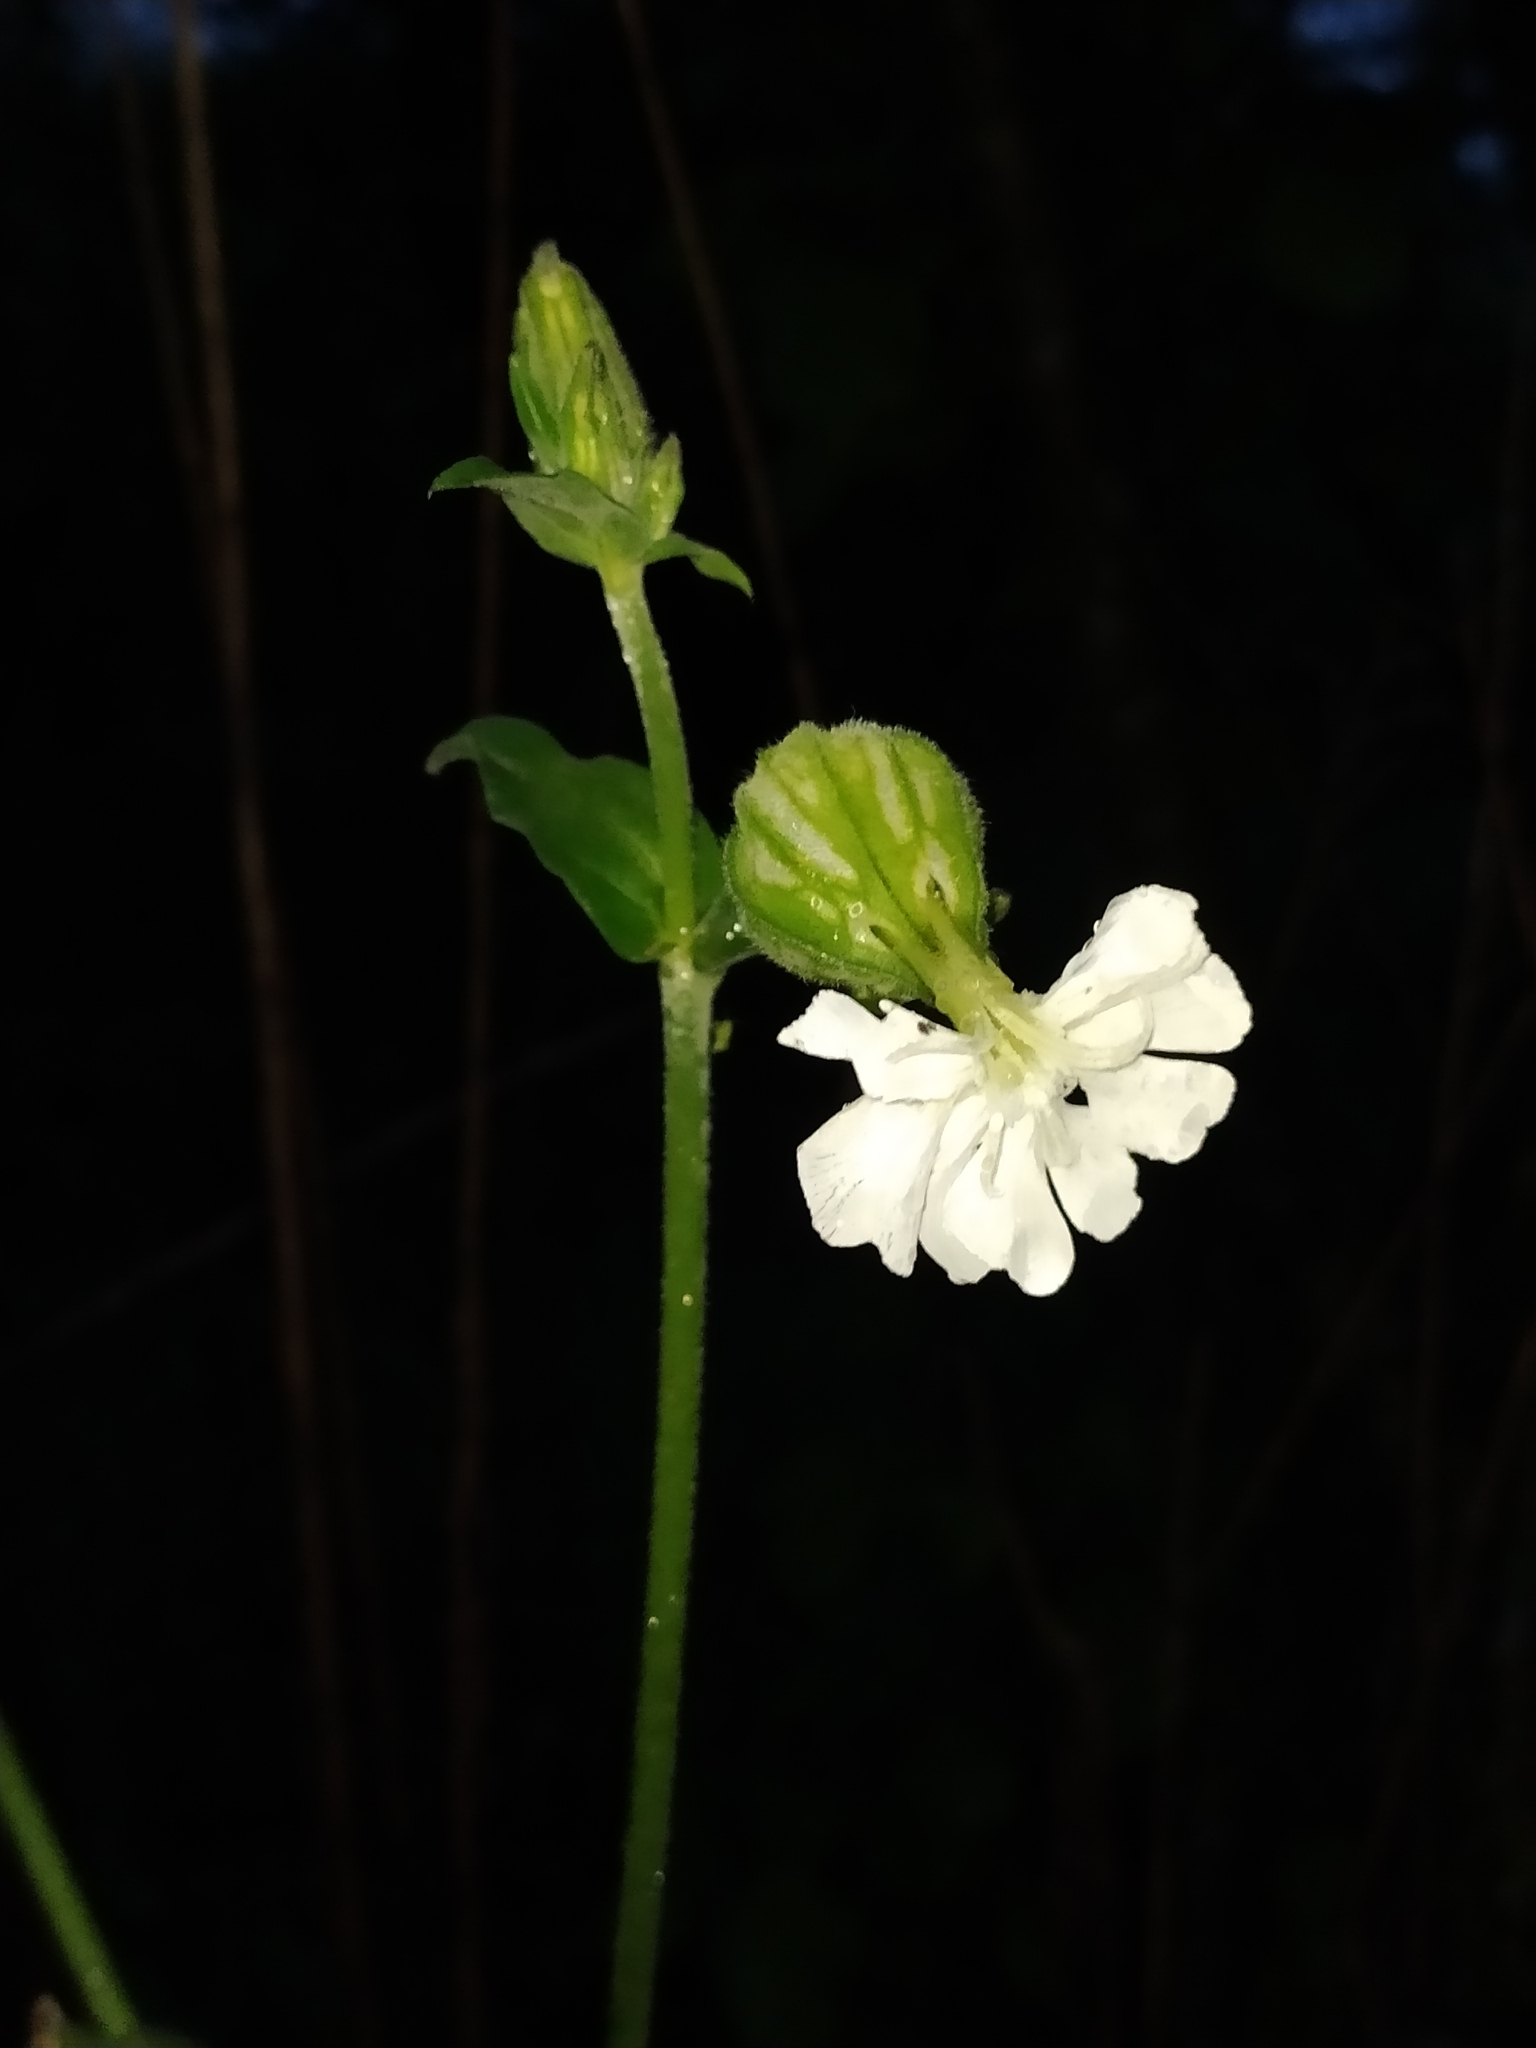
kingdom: Plantae
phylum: Tracheophyta
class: Magnoliopsida
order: Caryophyllales
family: Caryophyllaceae
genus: Silene
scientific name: Silene latifolia
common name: White campion
